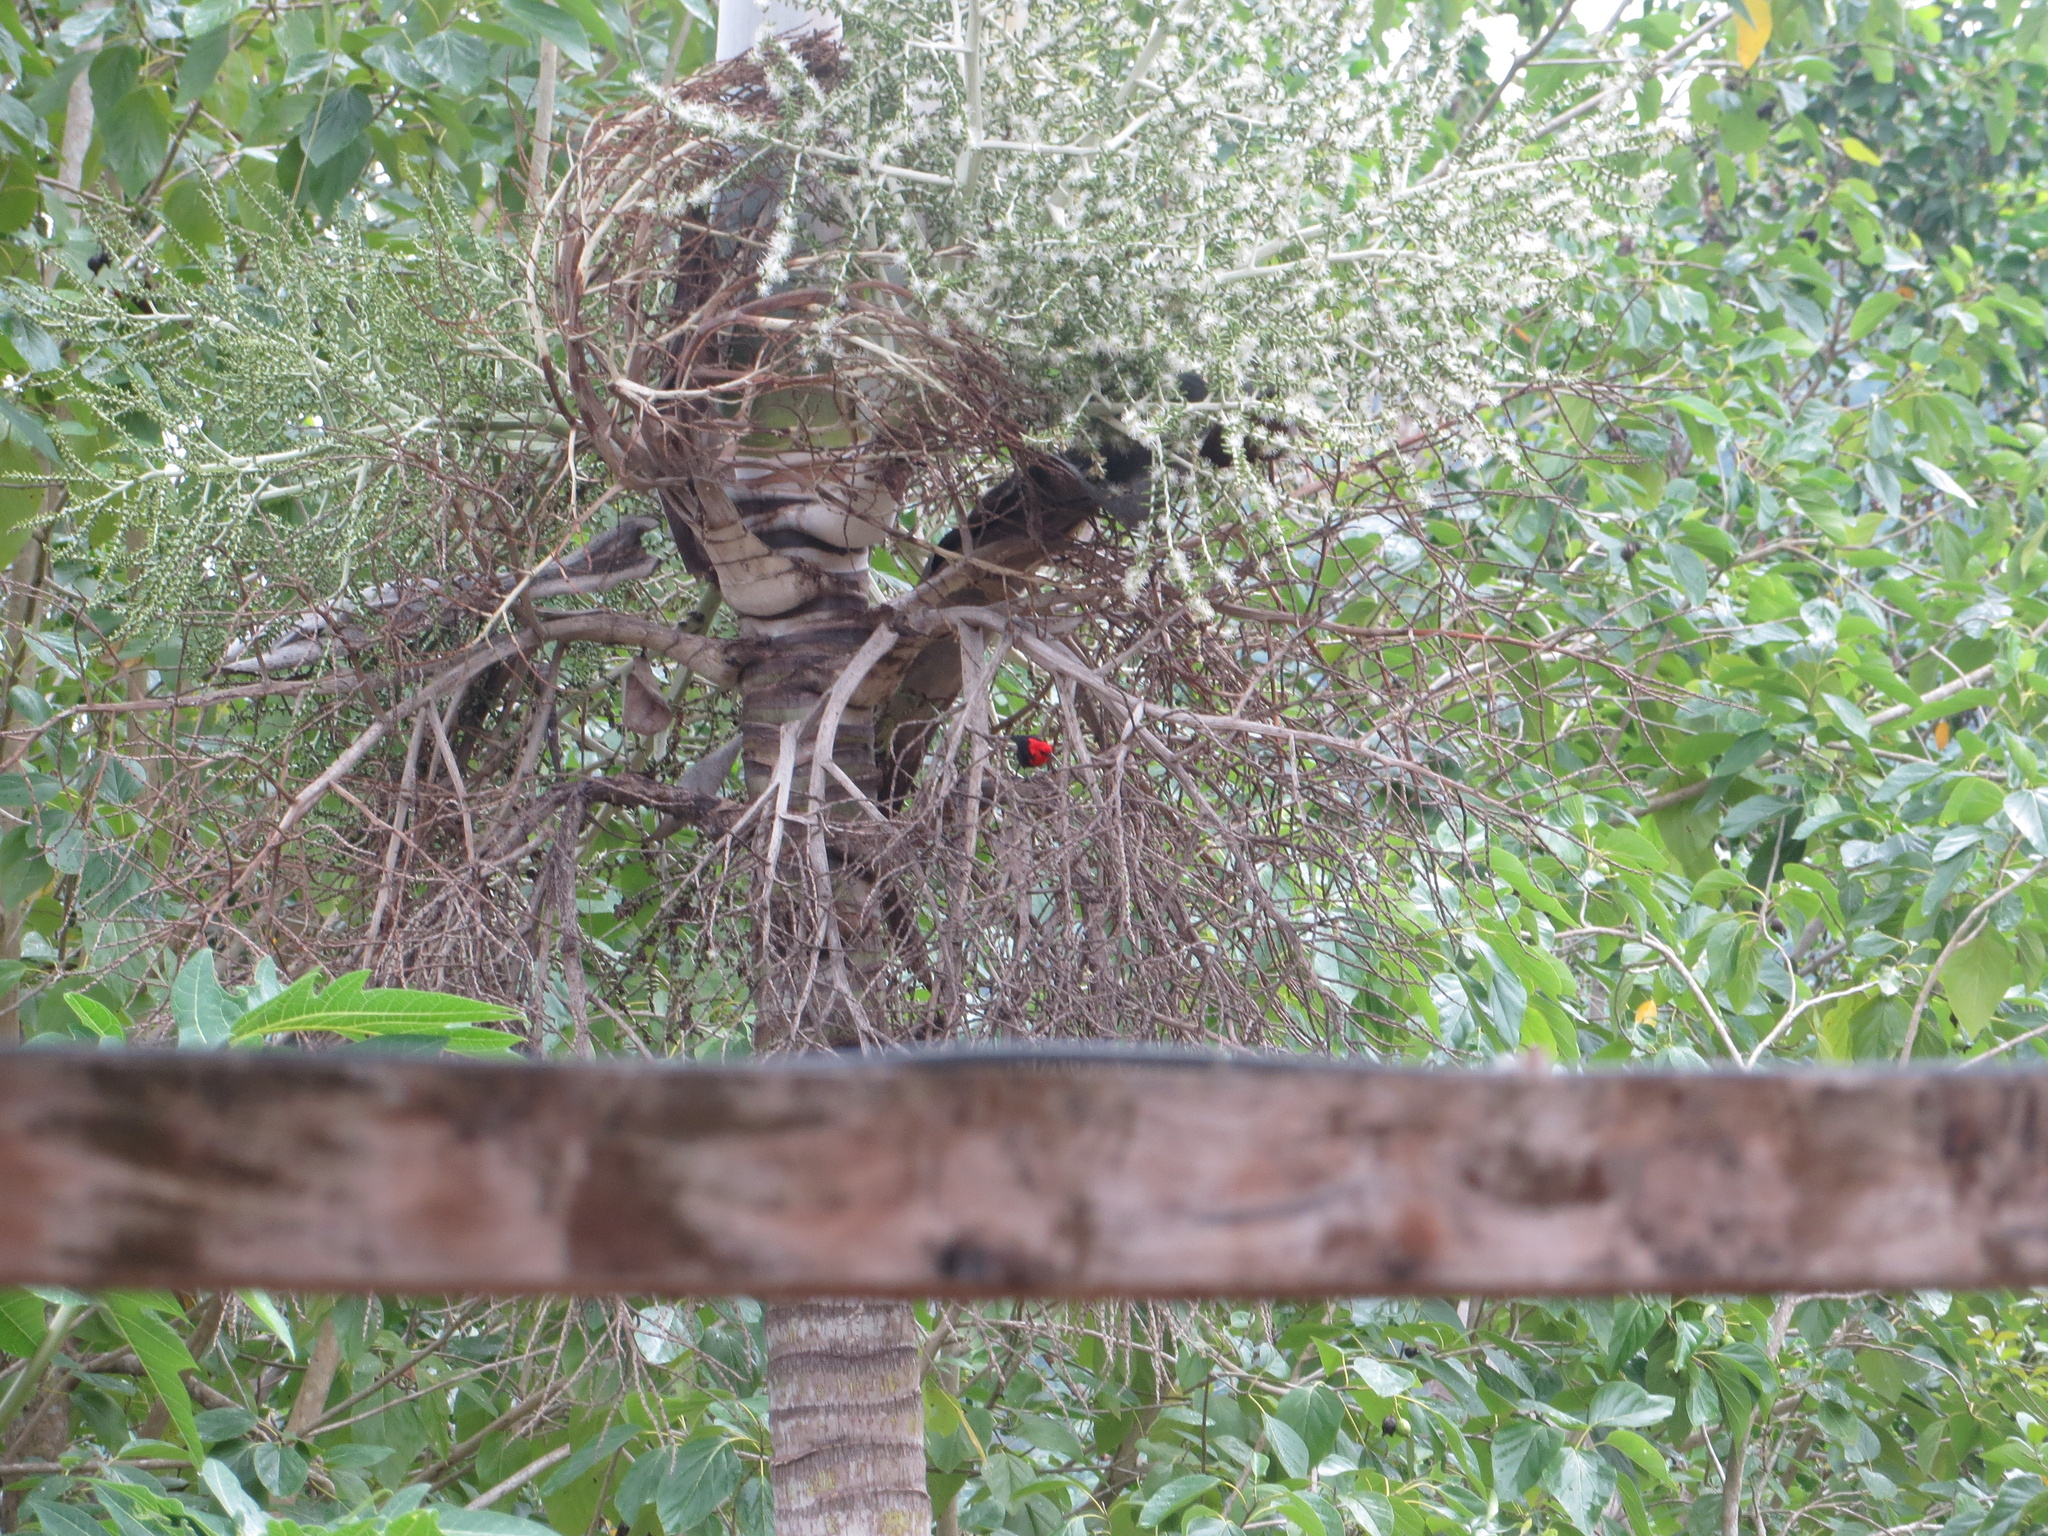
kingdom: Animalia
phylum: Chordata
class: Aves
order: Passeriformes
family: Meliphagidae
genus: Myzomela
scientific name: Myzomela cardinalis
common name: Cardinal myzomela
